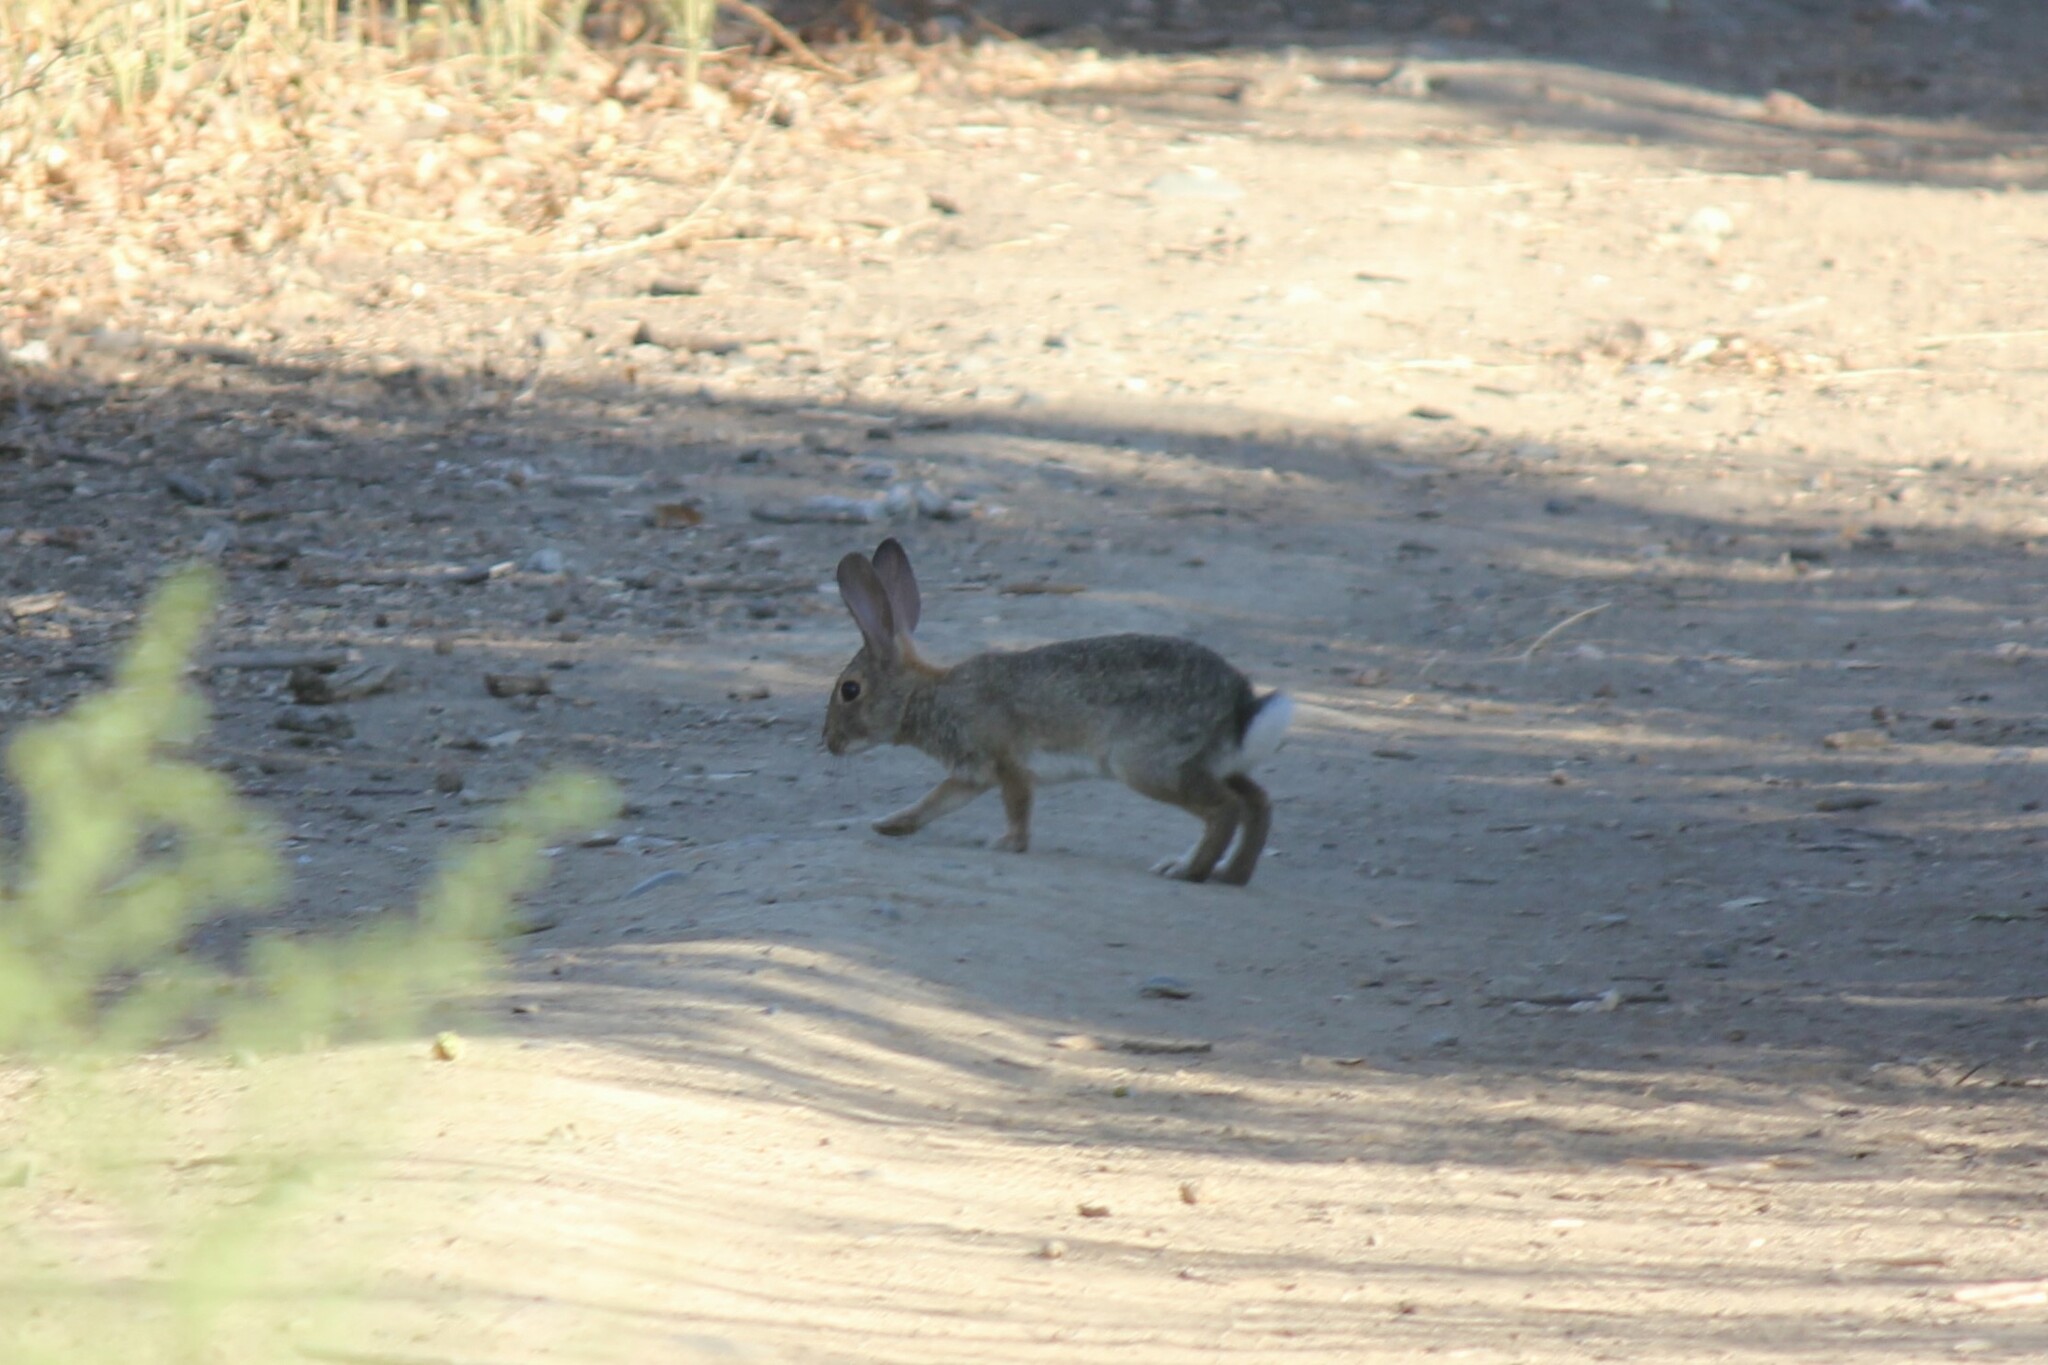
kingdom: Animalia
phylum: Chordata
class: Mammalia
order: Lagomorpha
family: Leporidae
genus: Sylvilagus
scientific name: Sylvilagus audubonii
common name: Desert cottontail
